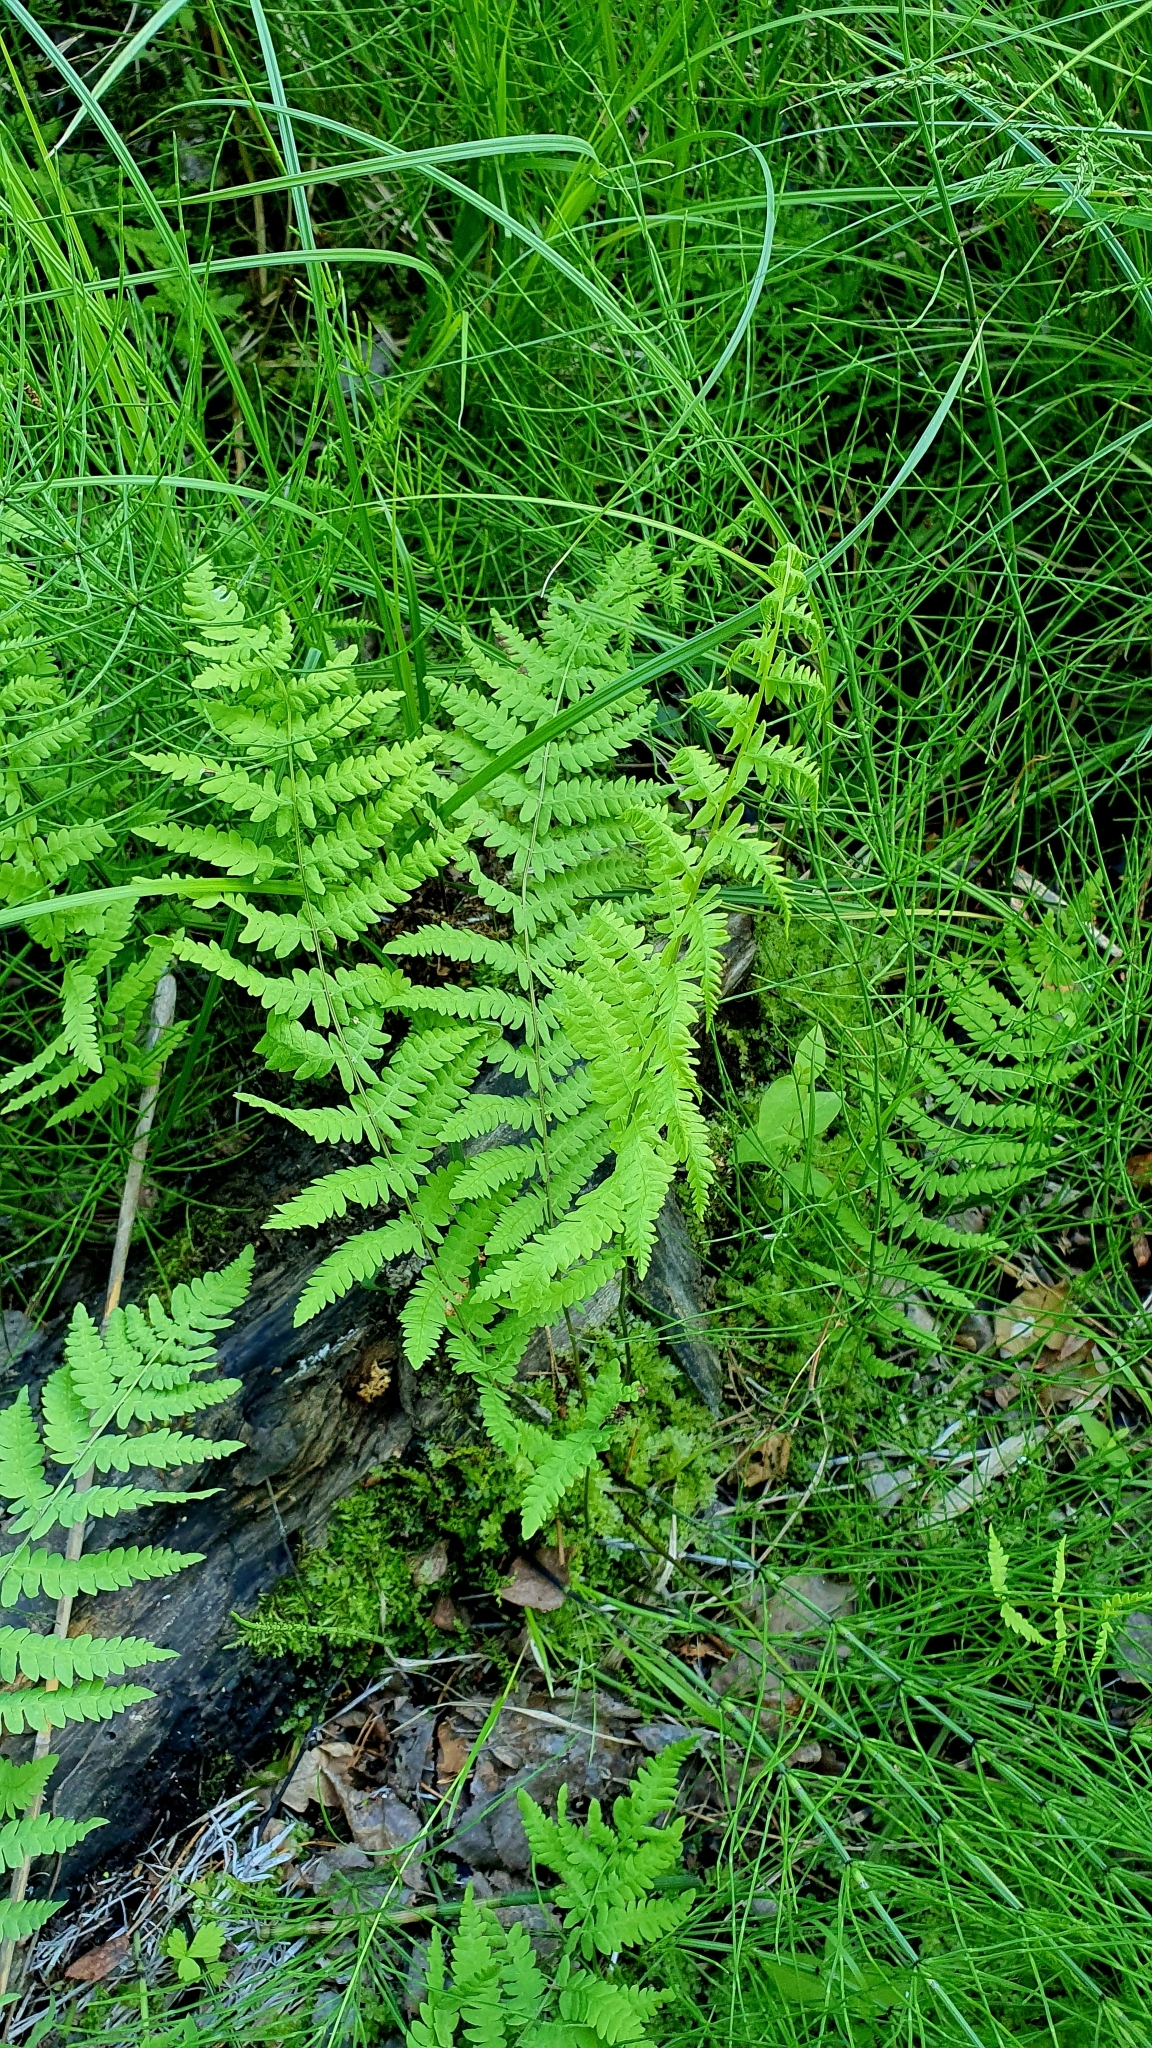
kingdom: Plantae
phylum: Tracheophyta
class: Polypodiopsida
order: Polypodiales
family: Thelypteridaceae
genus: Thelypteris
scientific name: Thelypteris palustris
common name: Marsh fern
